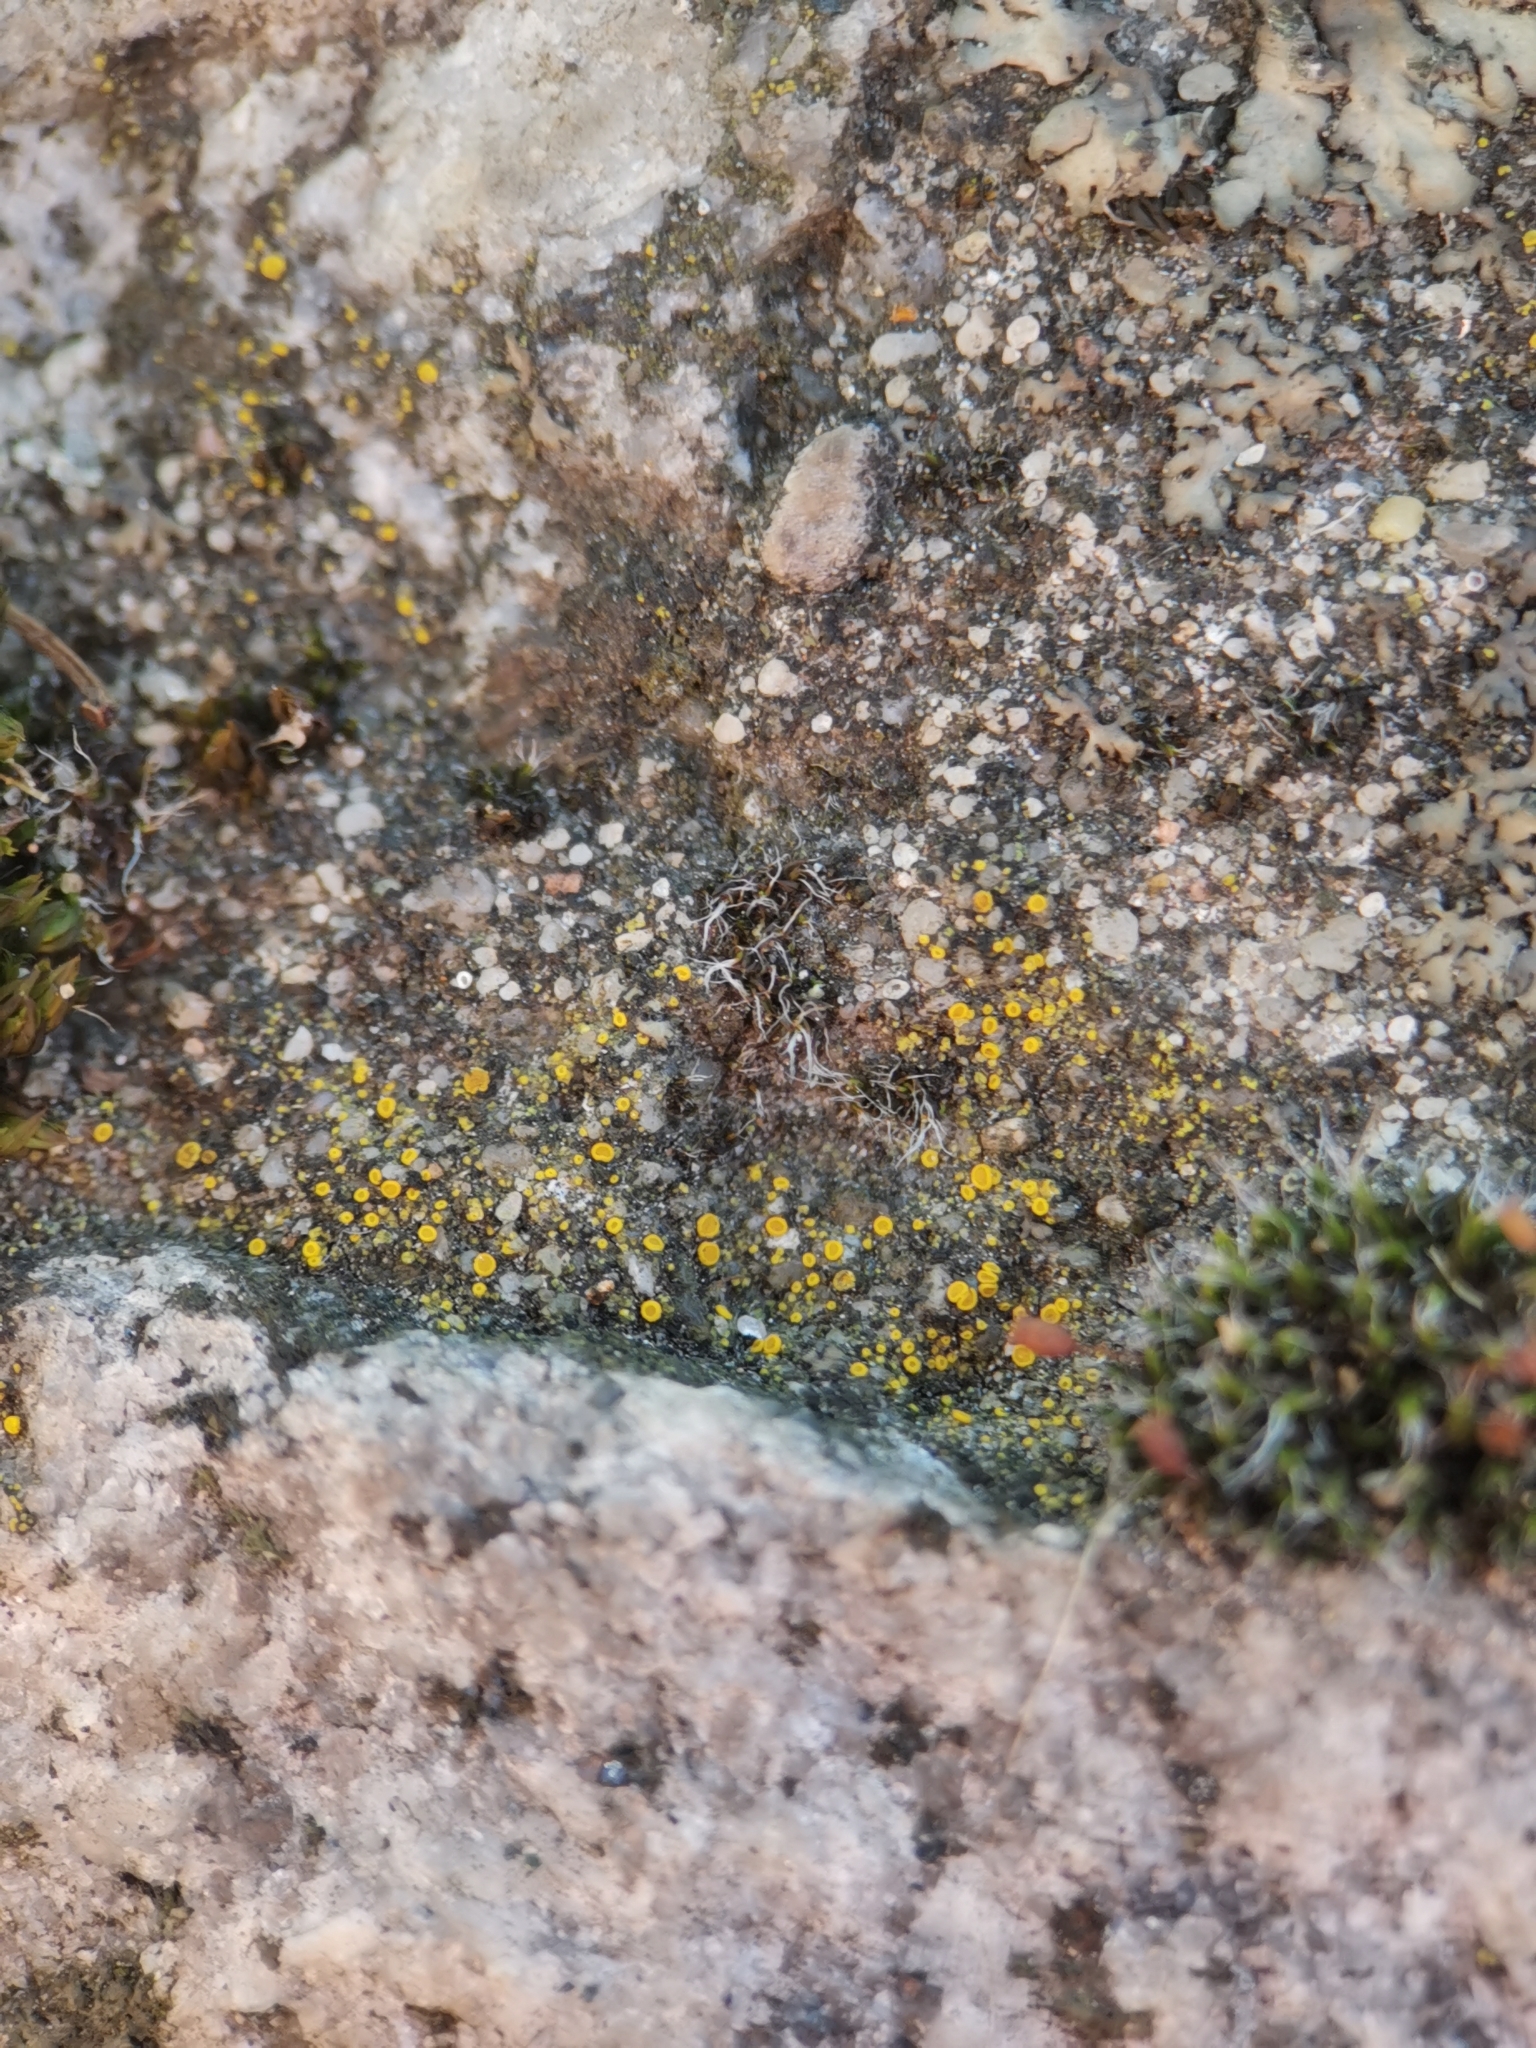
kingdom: Fungi
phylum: Ascomycota
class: Candelariomycetes
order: Candelariales
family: Candelariaceae
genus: Candelariella
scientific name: Candelariella aurella
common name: Hidden goldspeck lichen
